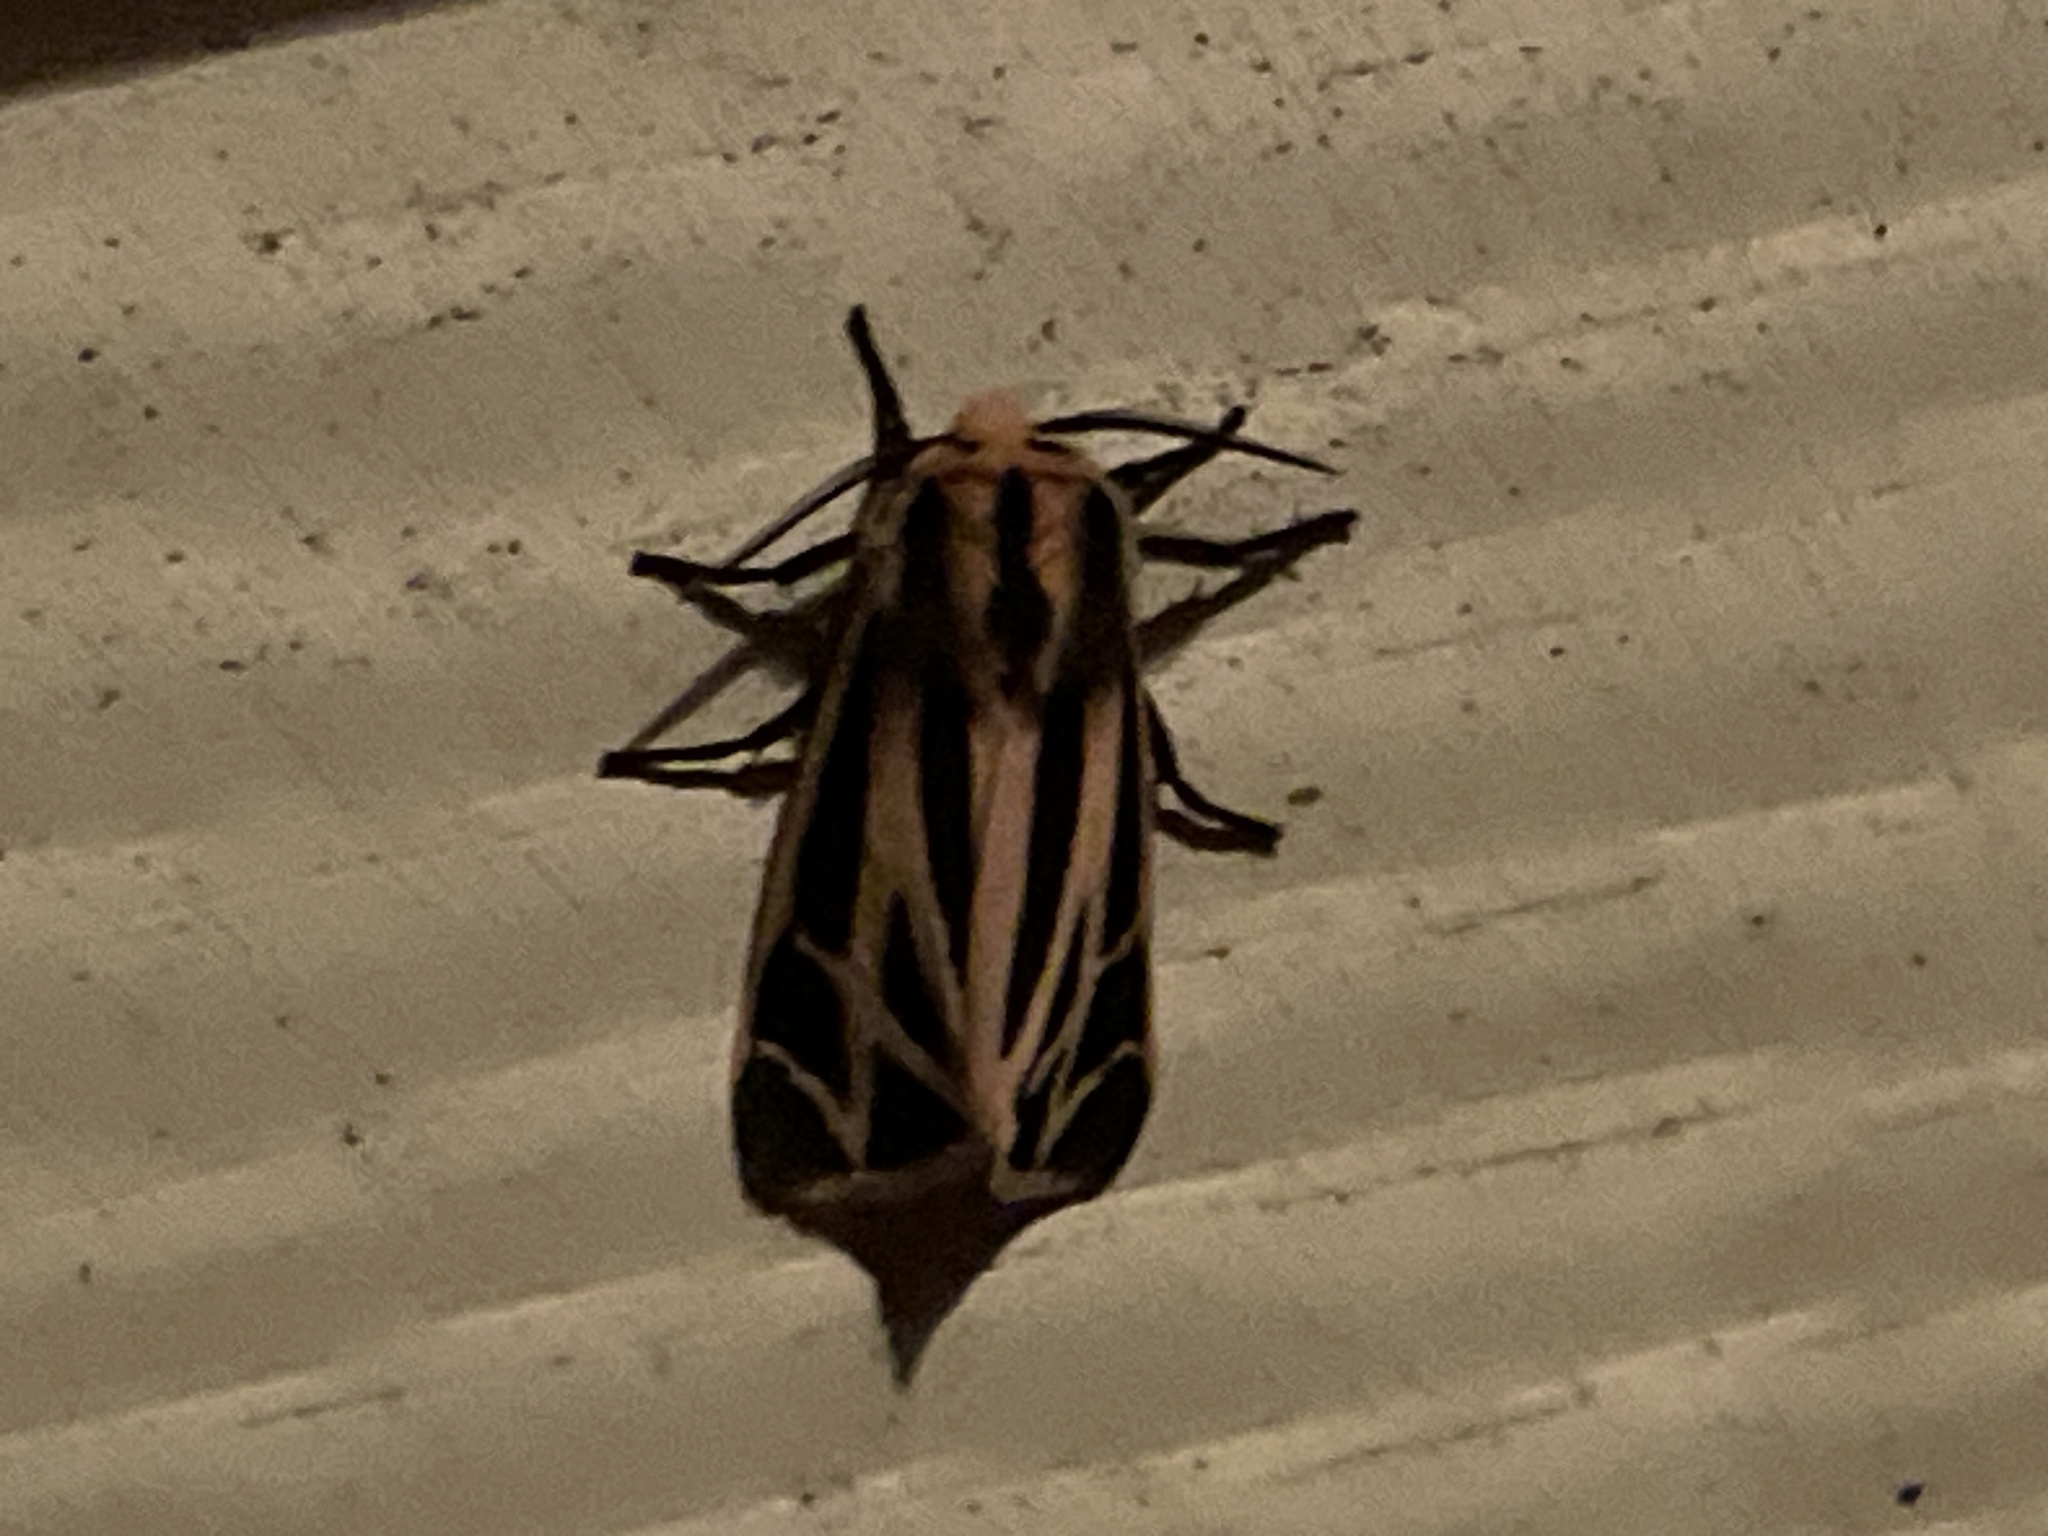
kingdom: Animalia
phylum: Arthropoda
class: Insecta
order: Lepidoptera
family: Erebidae
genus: Apantesis
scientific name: Apantesis phalerata
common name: Harnessed tiger moth
